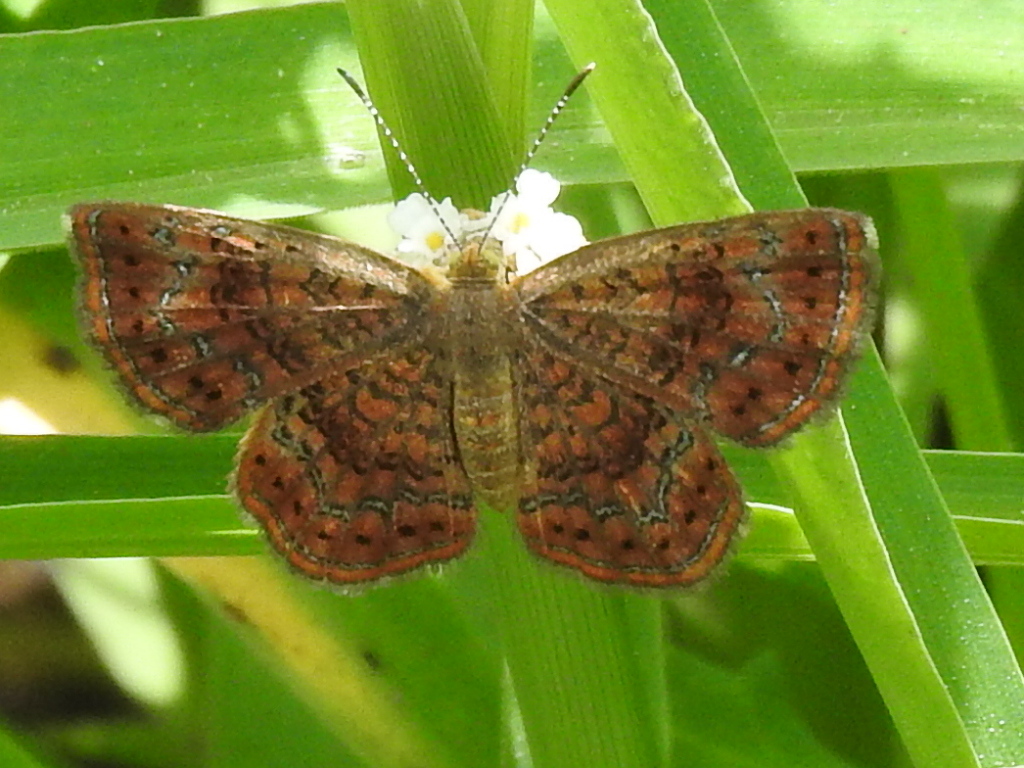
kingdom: Animalia
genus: Calephelis
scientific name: Calephelis perditalis
